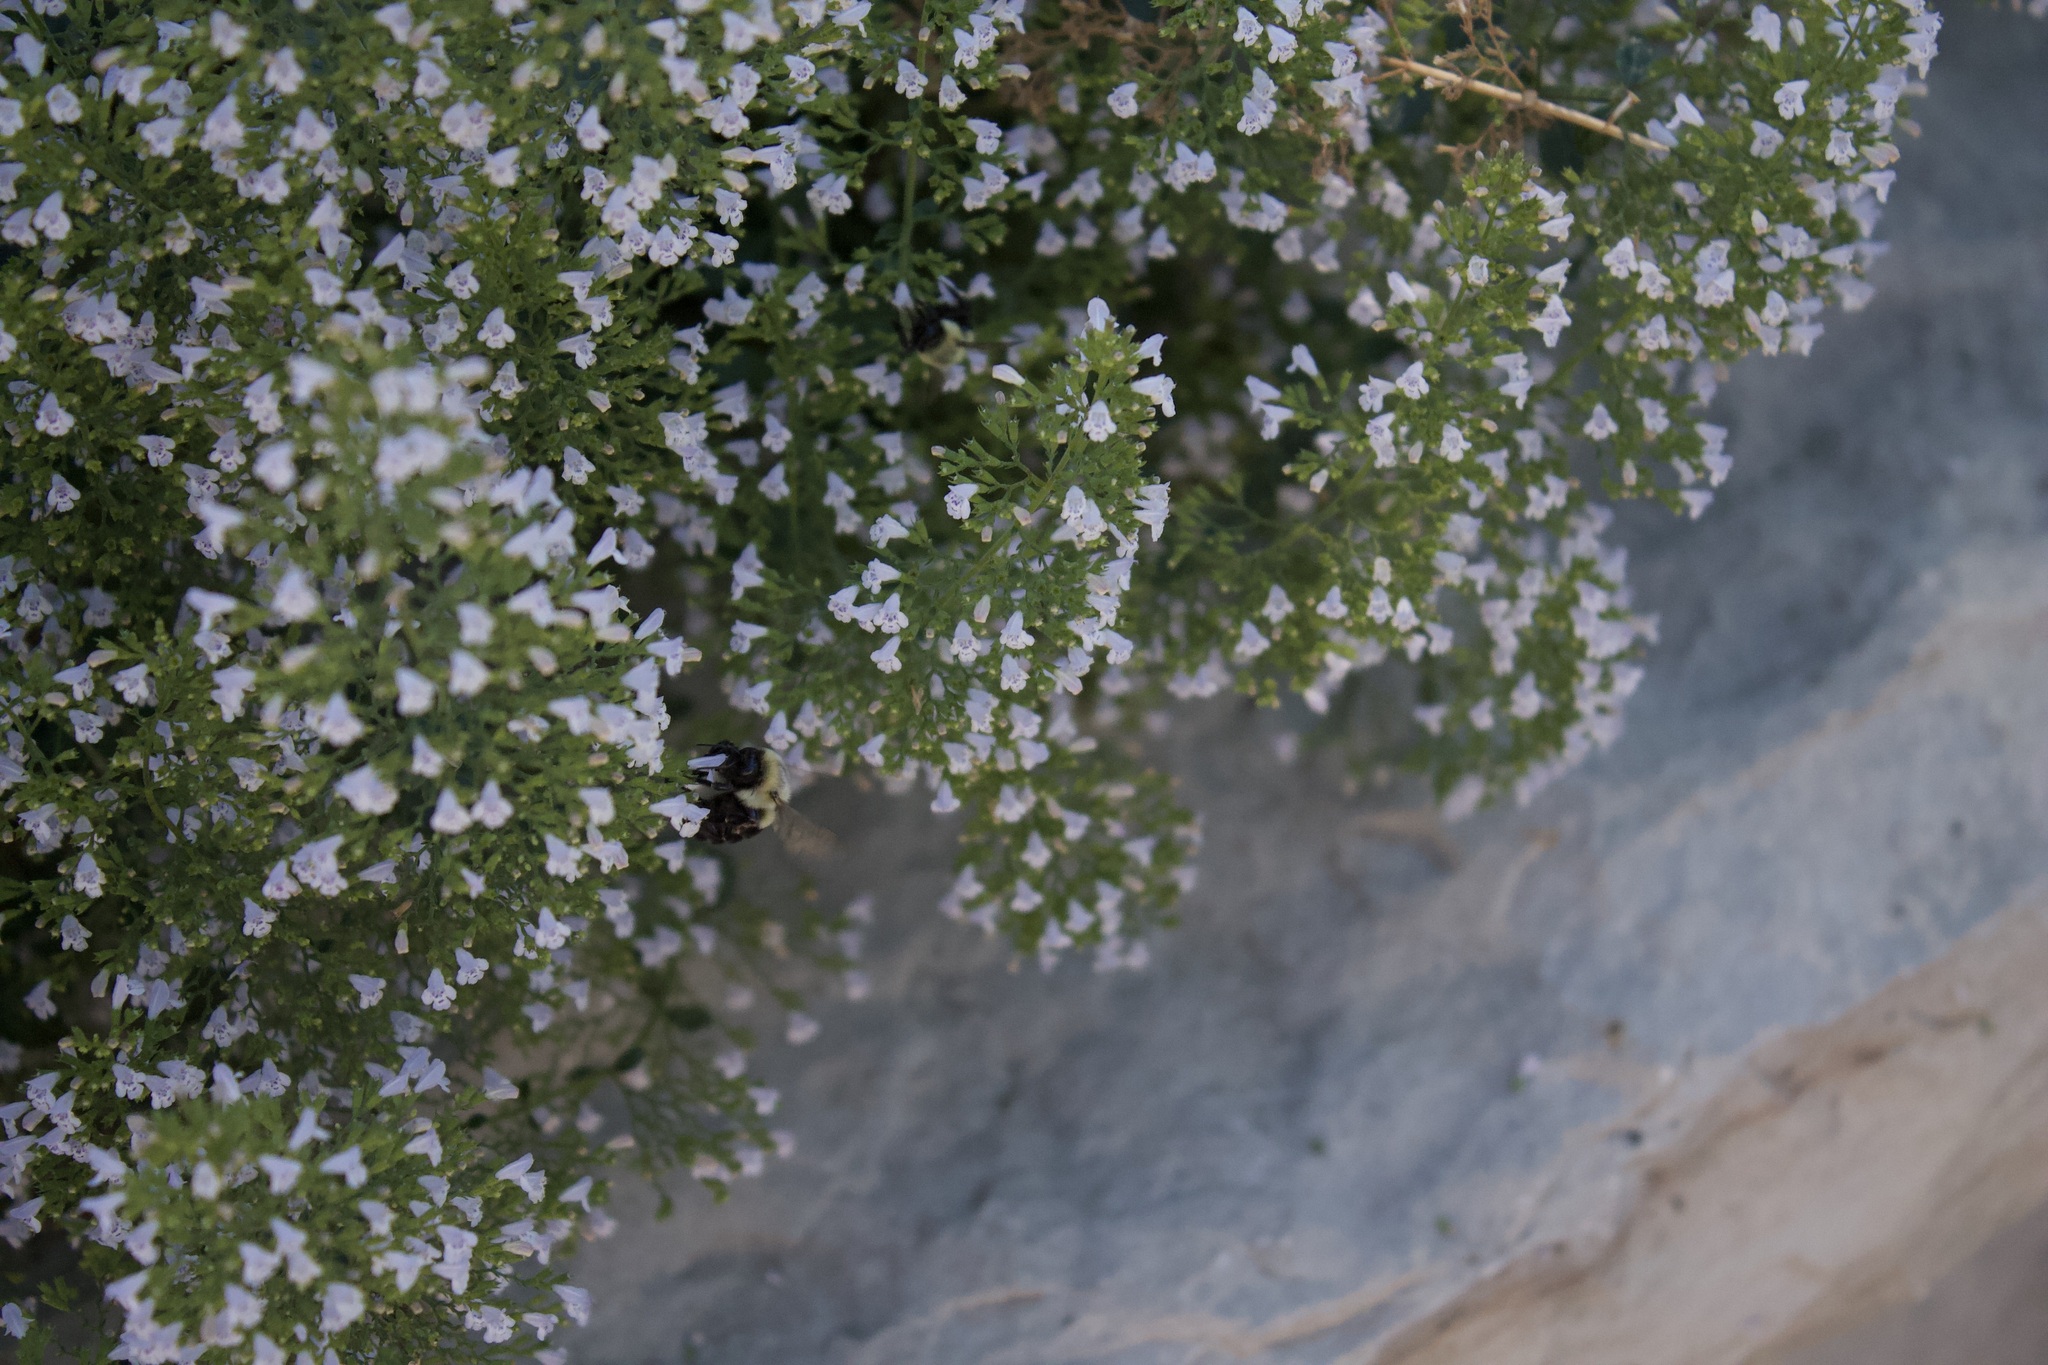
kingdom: Animalia
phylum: Arthropoda
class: Insecta
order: Hymenoptera
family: Apidae
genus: Bombus
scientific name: Bombus impatiens
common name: Common eastern bumble bee
